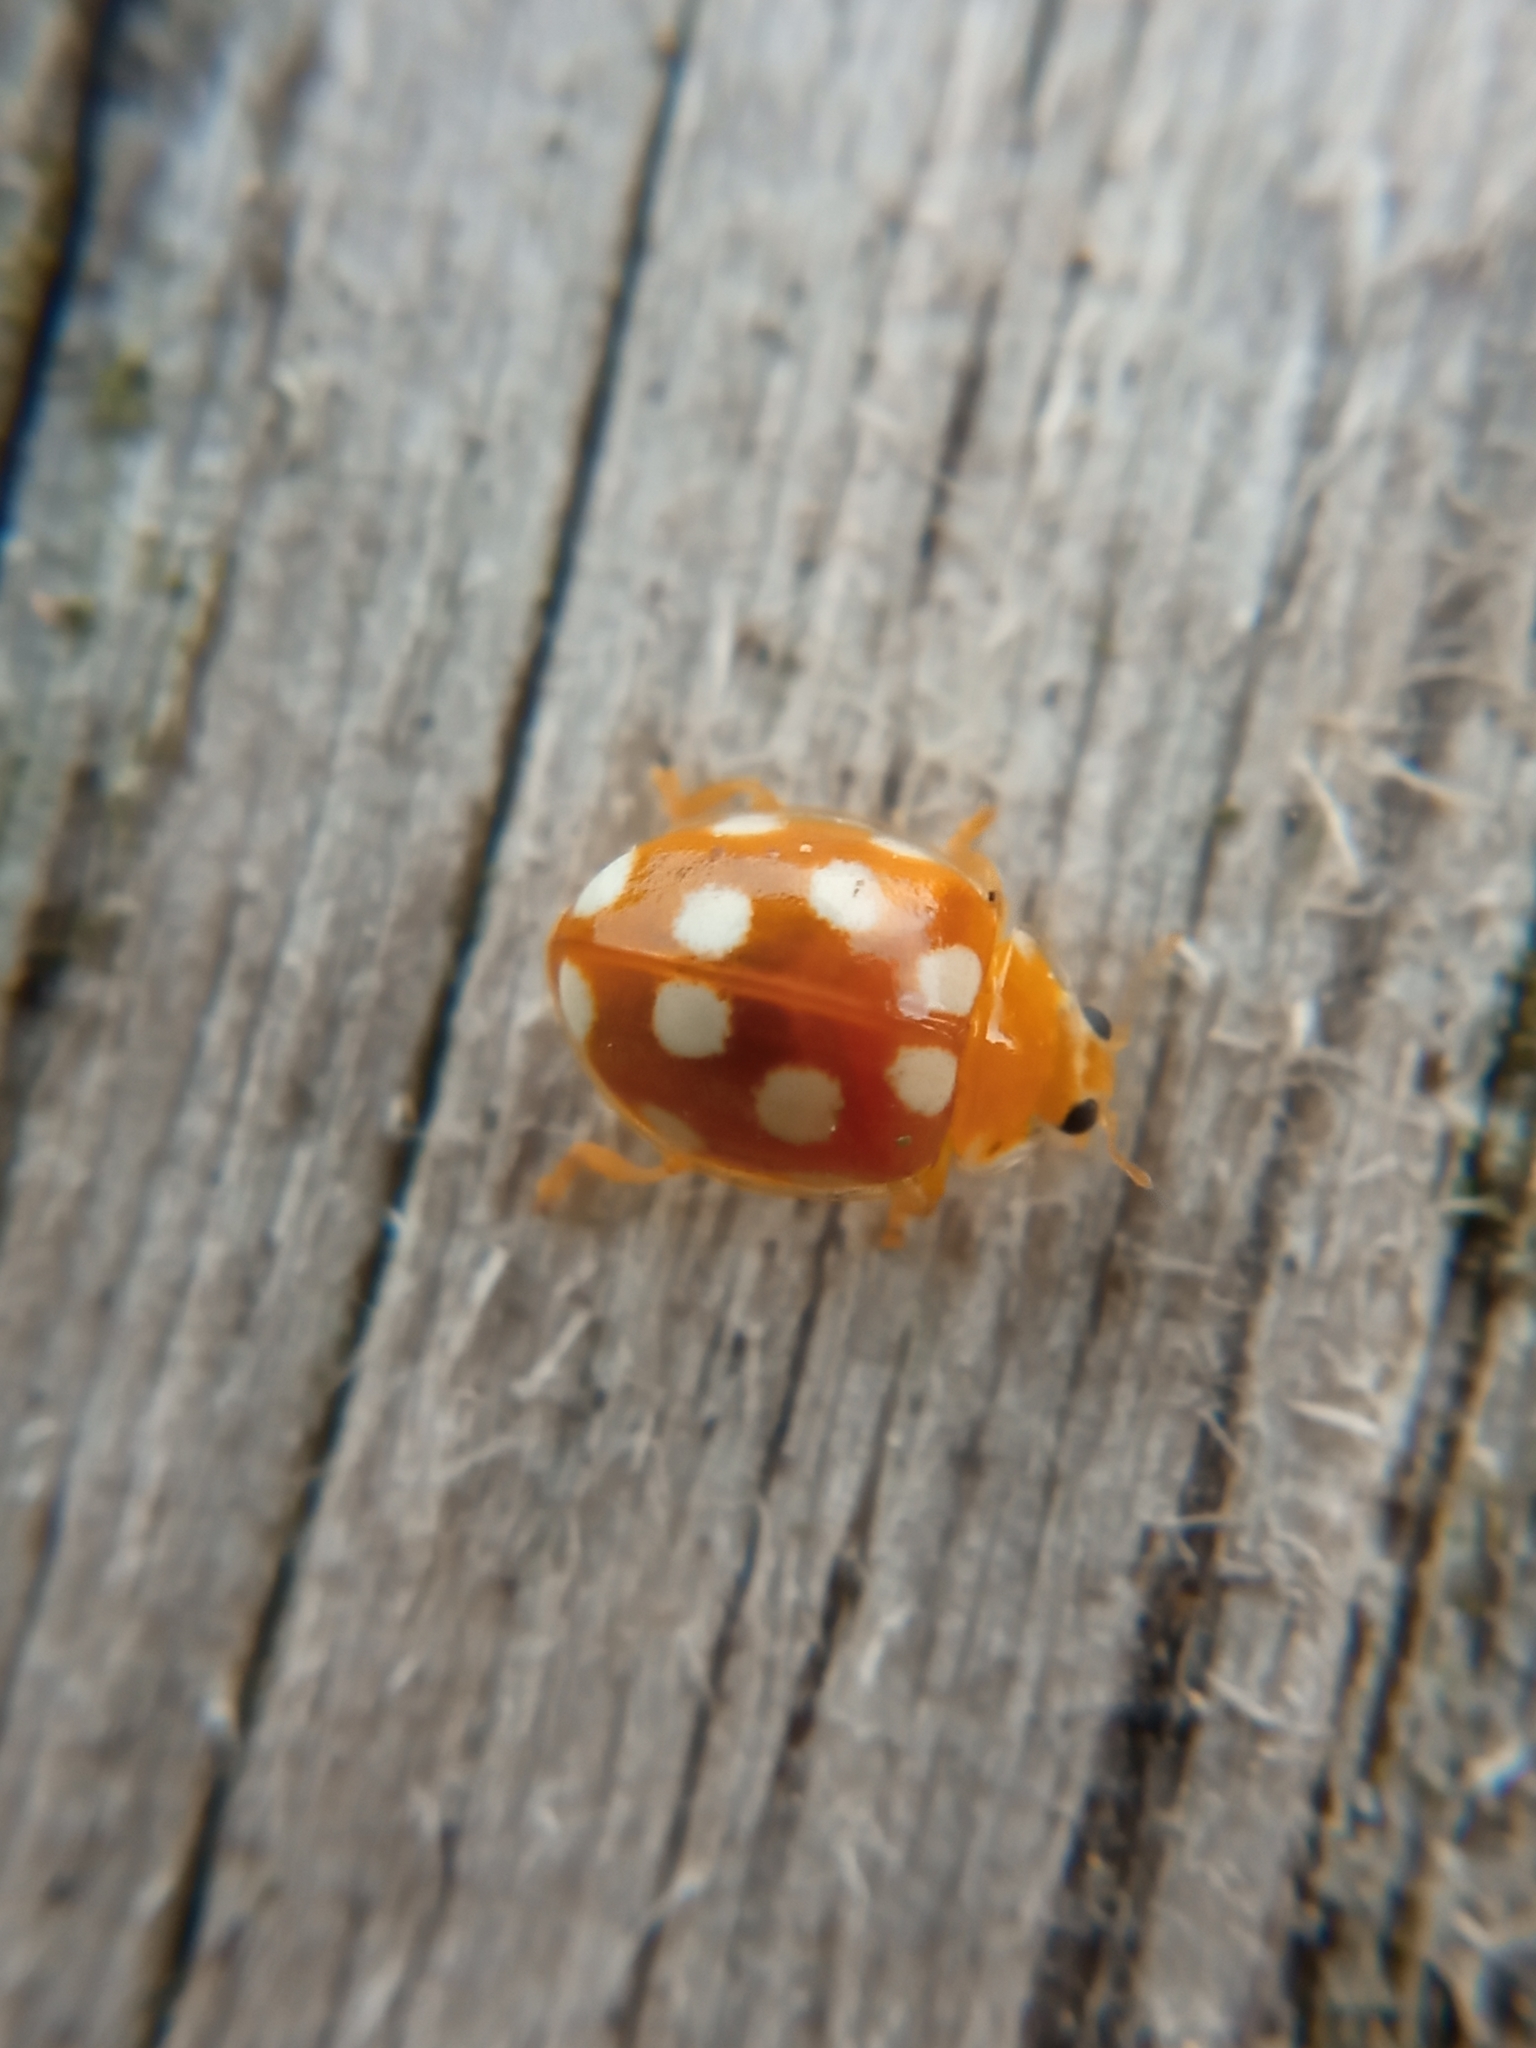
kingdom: Animalia
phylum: Arthropoda
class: Insecta
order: Coleoptera
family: Coccinellidae
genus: Vibidia
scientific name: Vibidia duodecimguttata
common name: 12-spot ladybird
